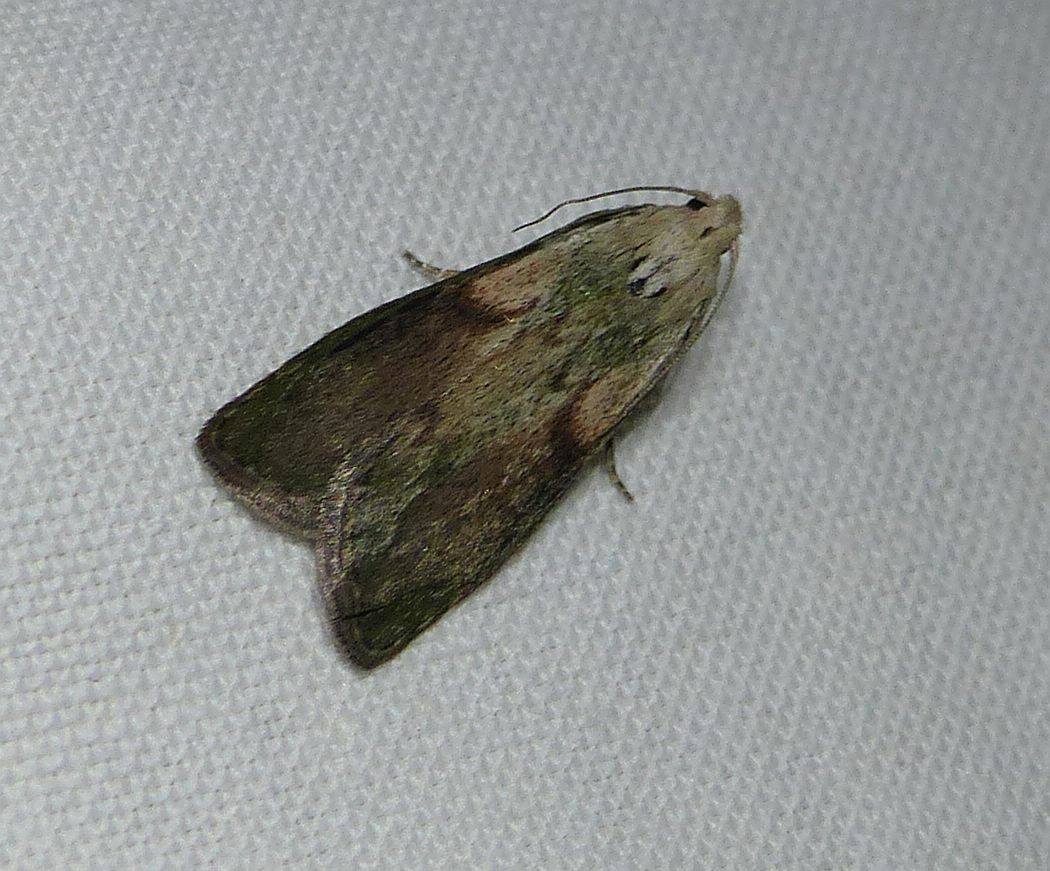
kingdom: Animalia
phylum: Arthropoda
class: Insecta
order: Lepidoptera
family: Pyralidae
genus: Aphomia
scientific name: Aphomia sociella
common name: Bee moth
